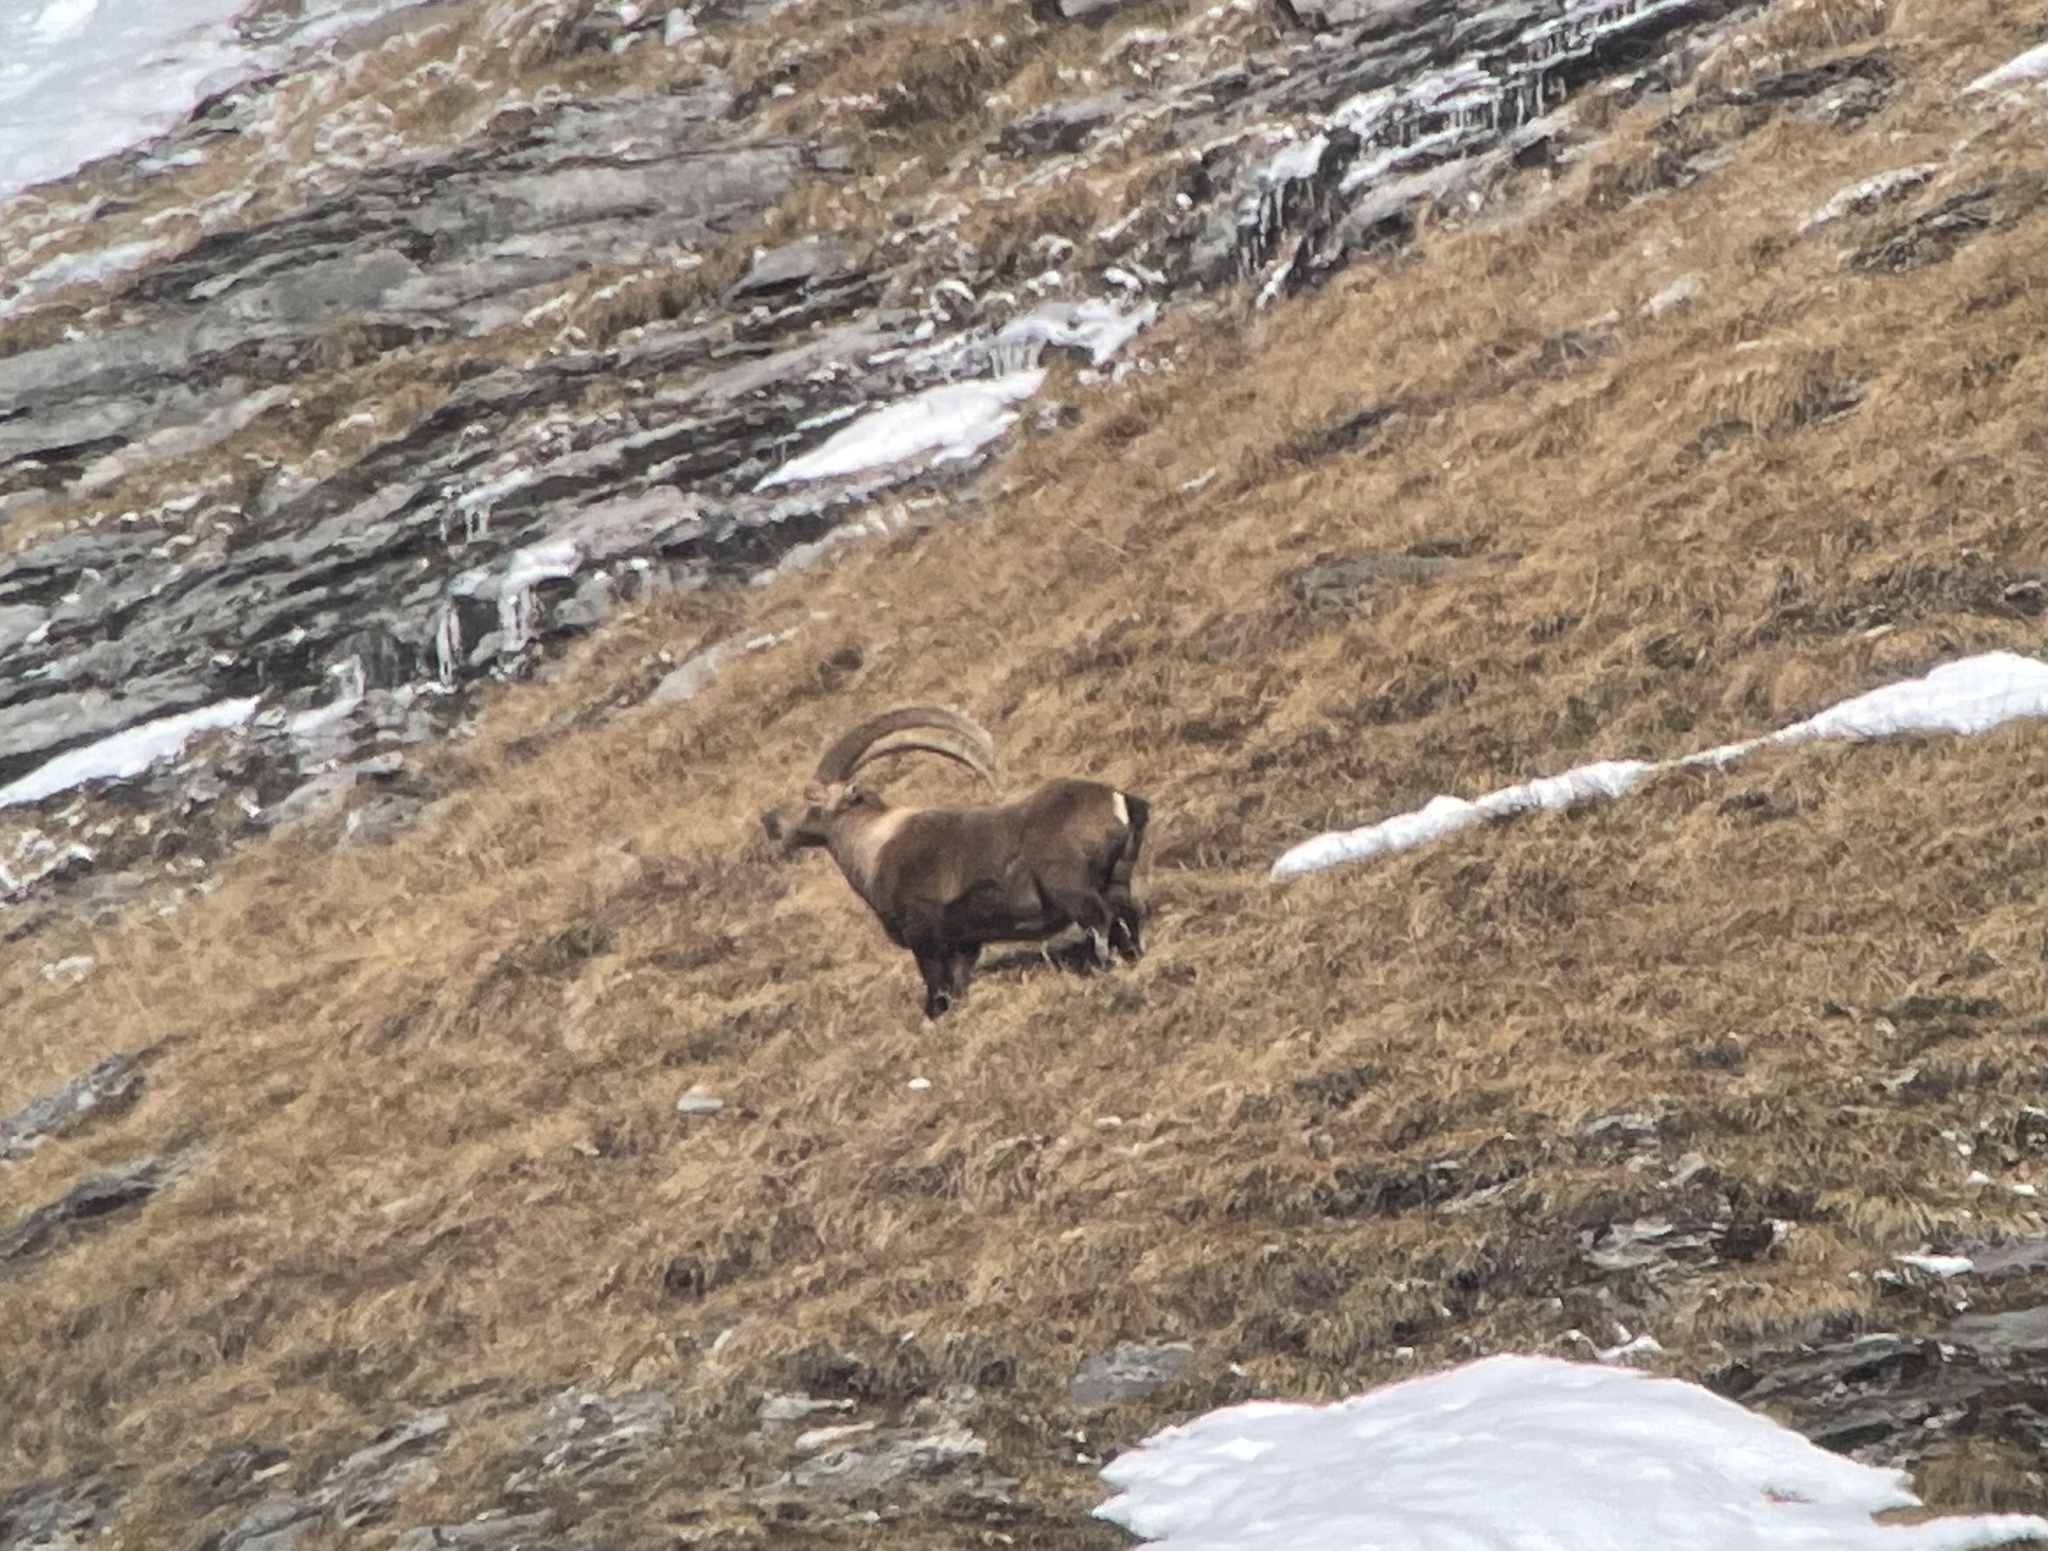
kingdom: Animalia
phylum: Chordata
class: Mammalia
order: Artiodactyla
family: Bovidae
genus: Capra
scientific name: Capra ibex
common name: Alpine ibex
